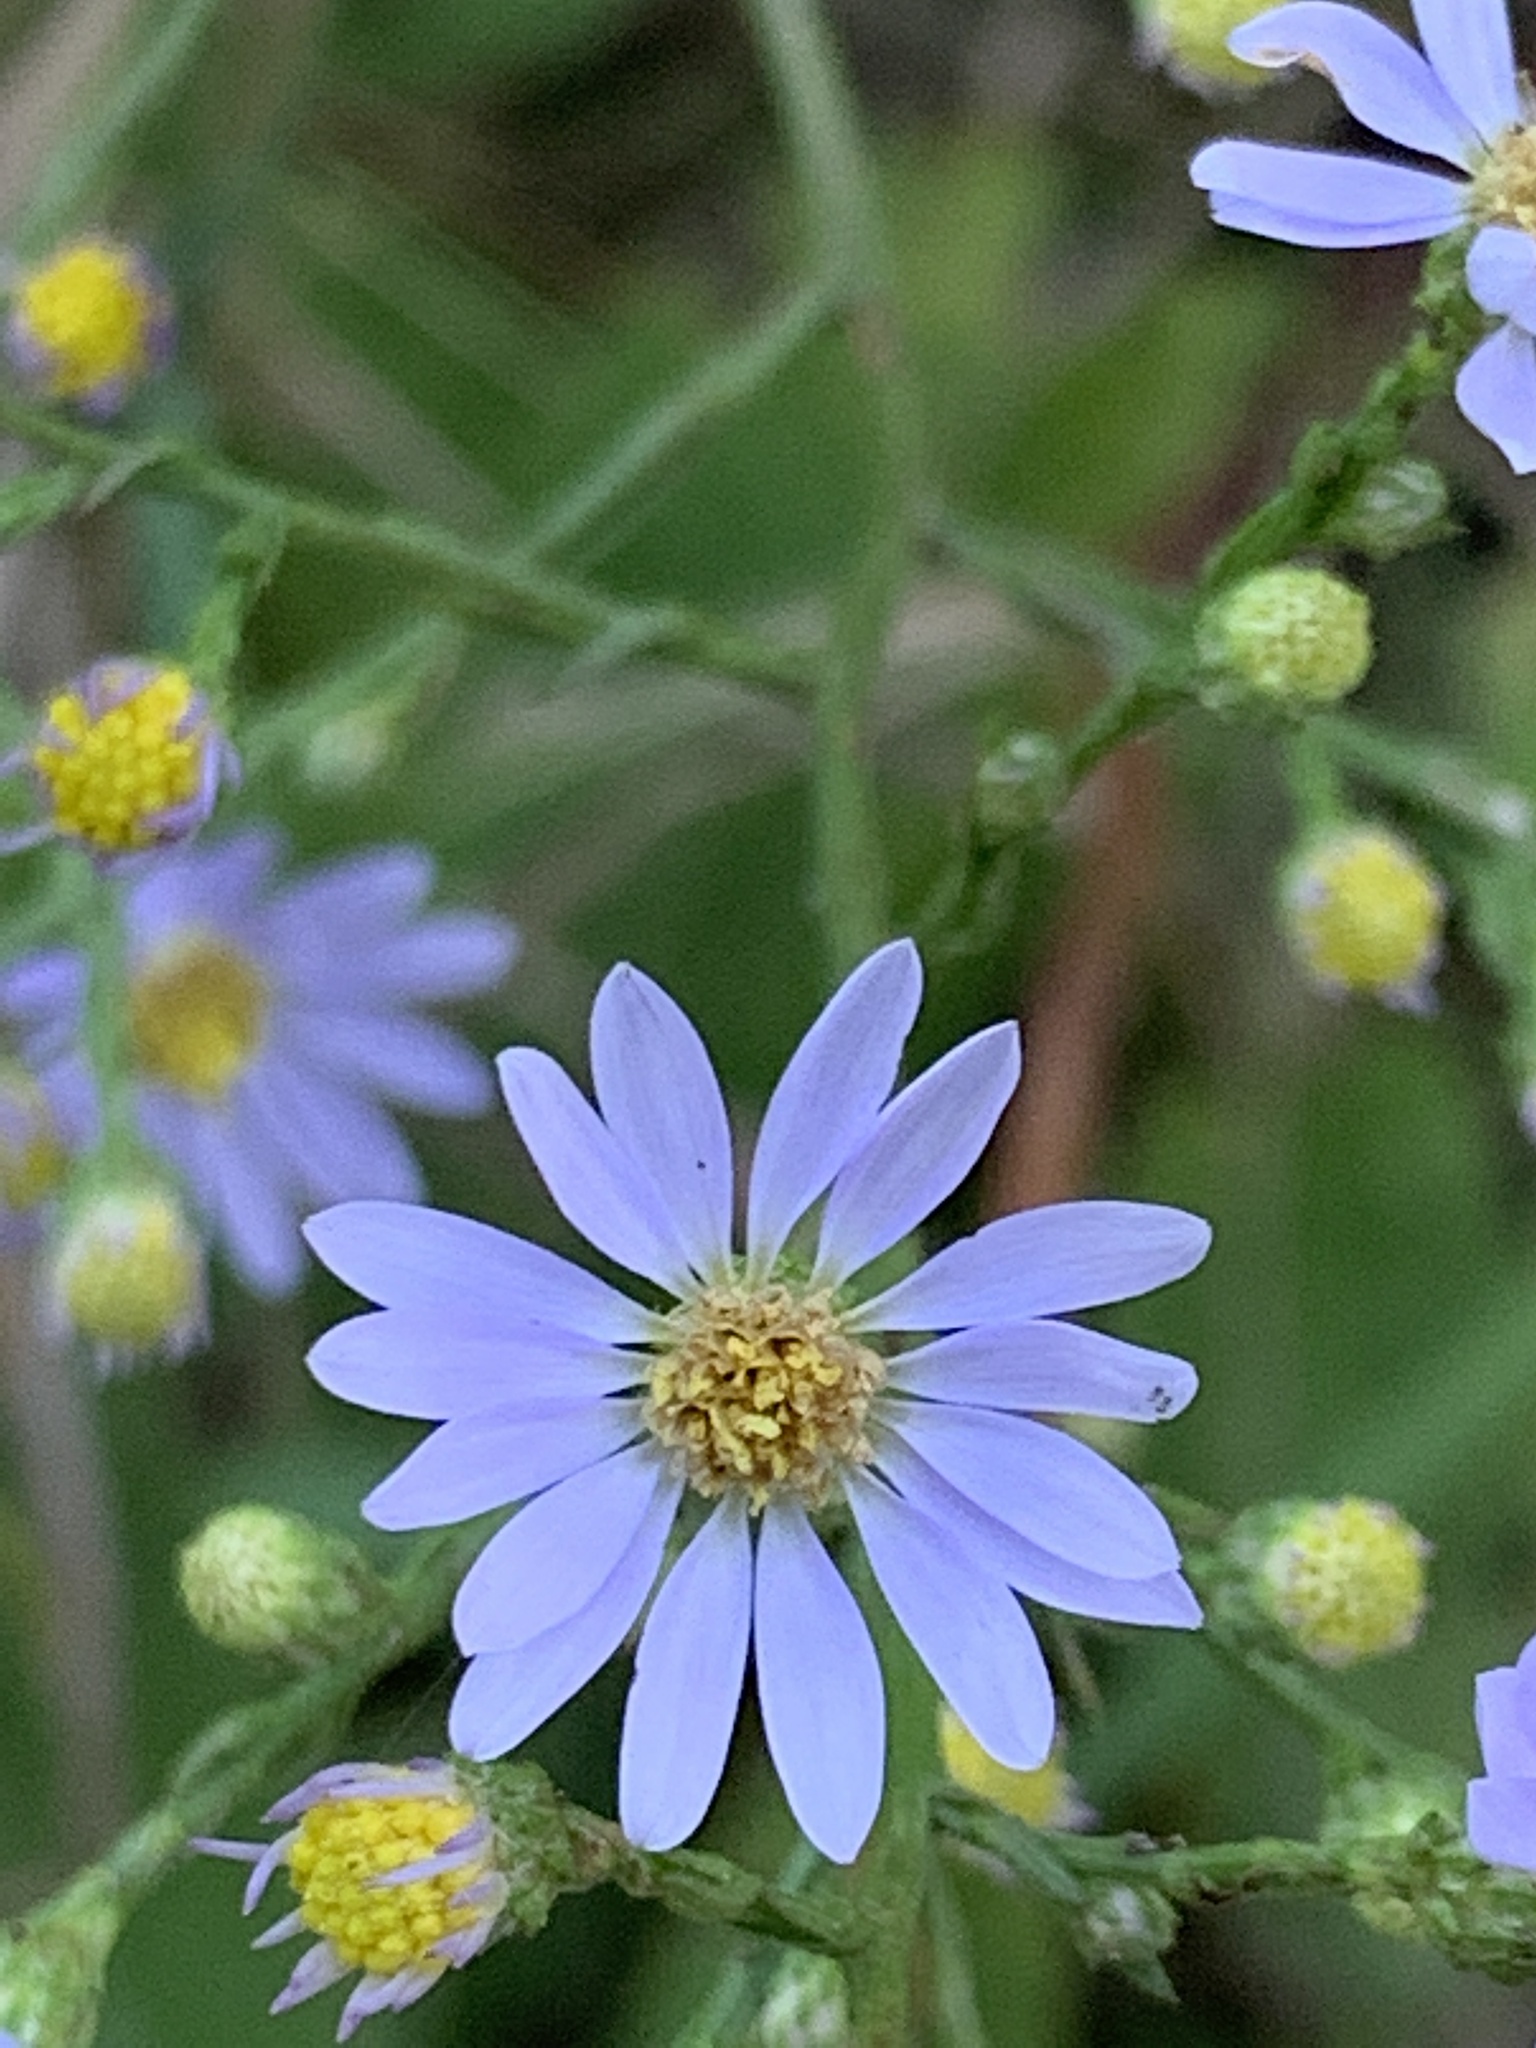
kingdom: Plantae
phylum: Tracheophyta
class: Magnoliopsida
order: Asterales
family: Asteraceae
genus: Symphyotrichum
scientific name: Symphyotrichum oolentangiense
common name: Azure aster
